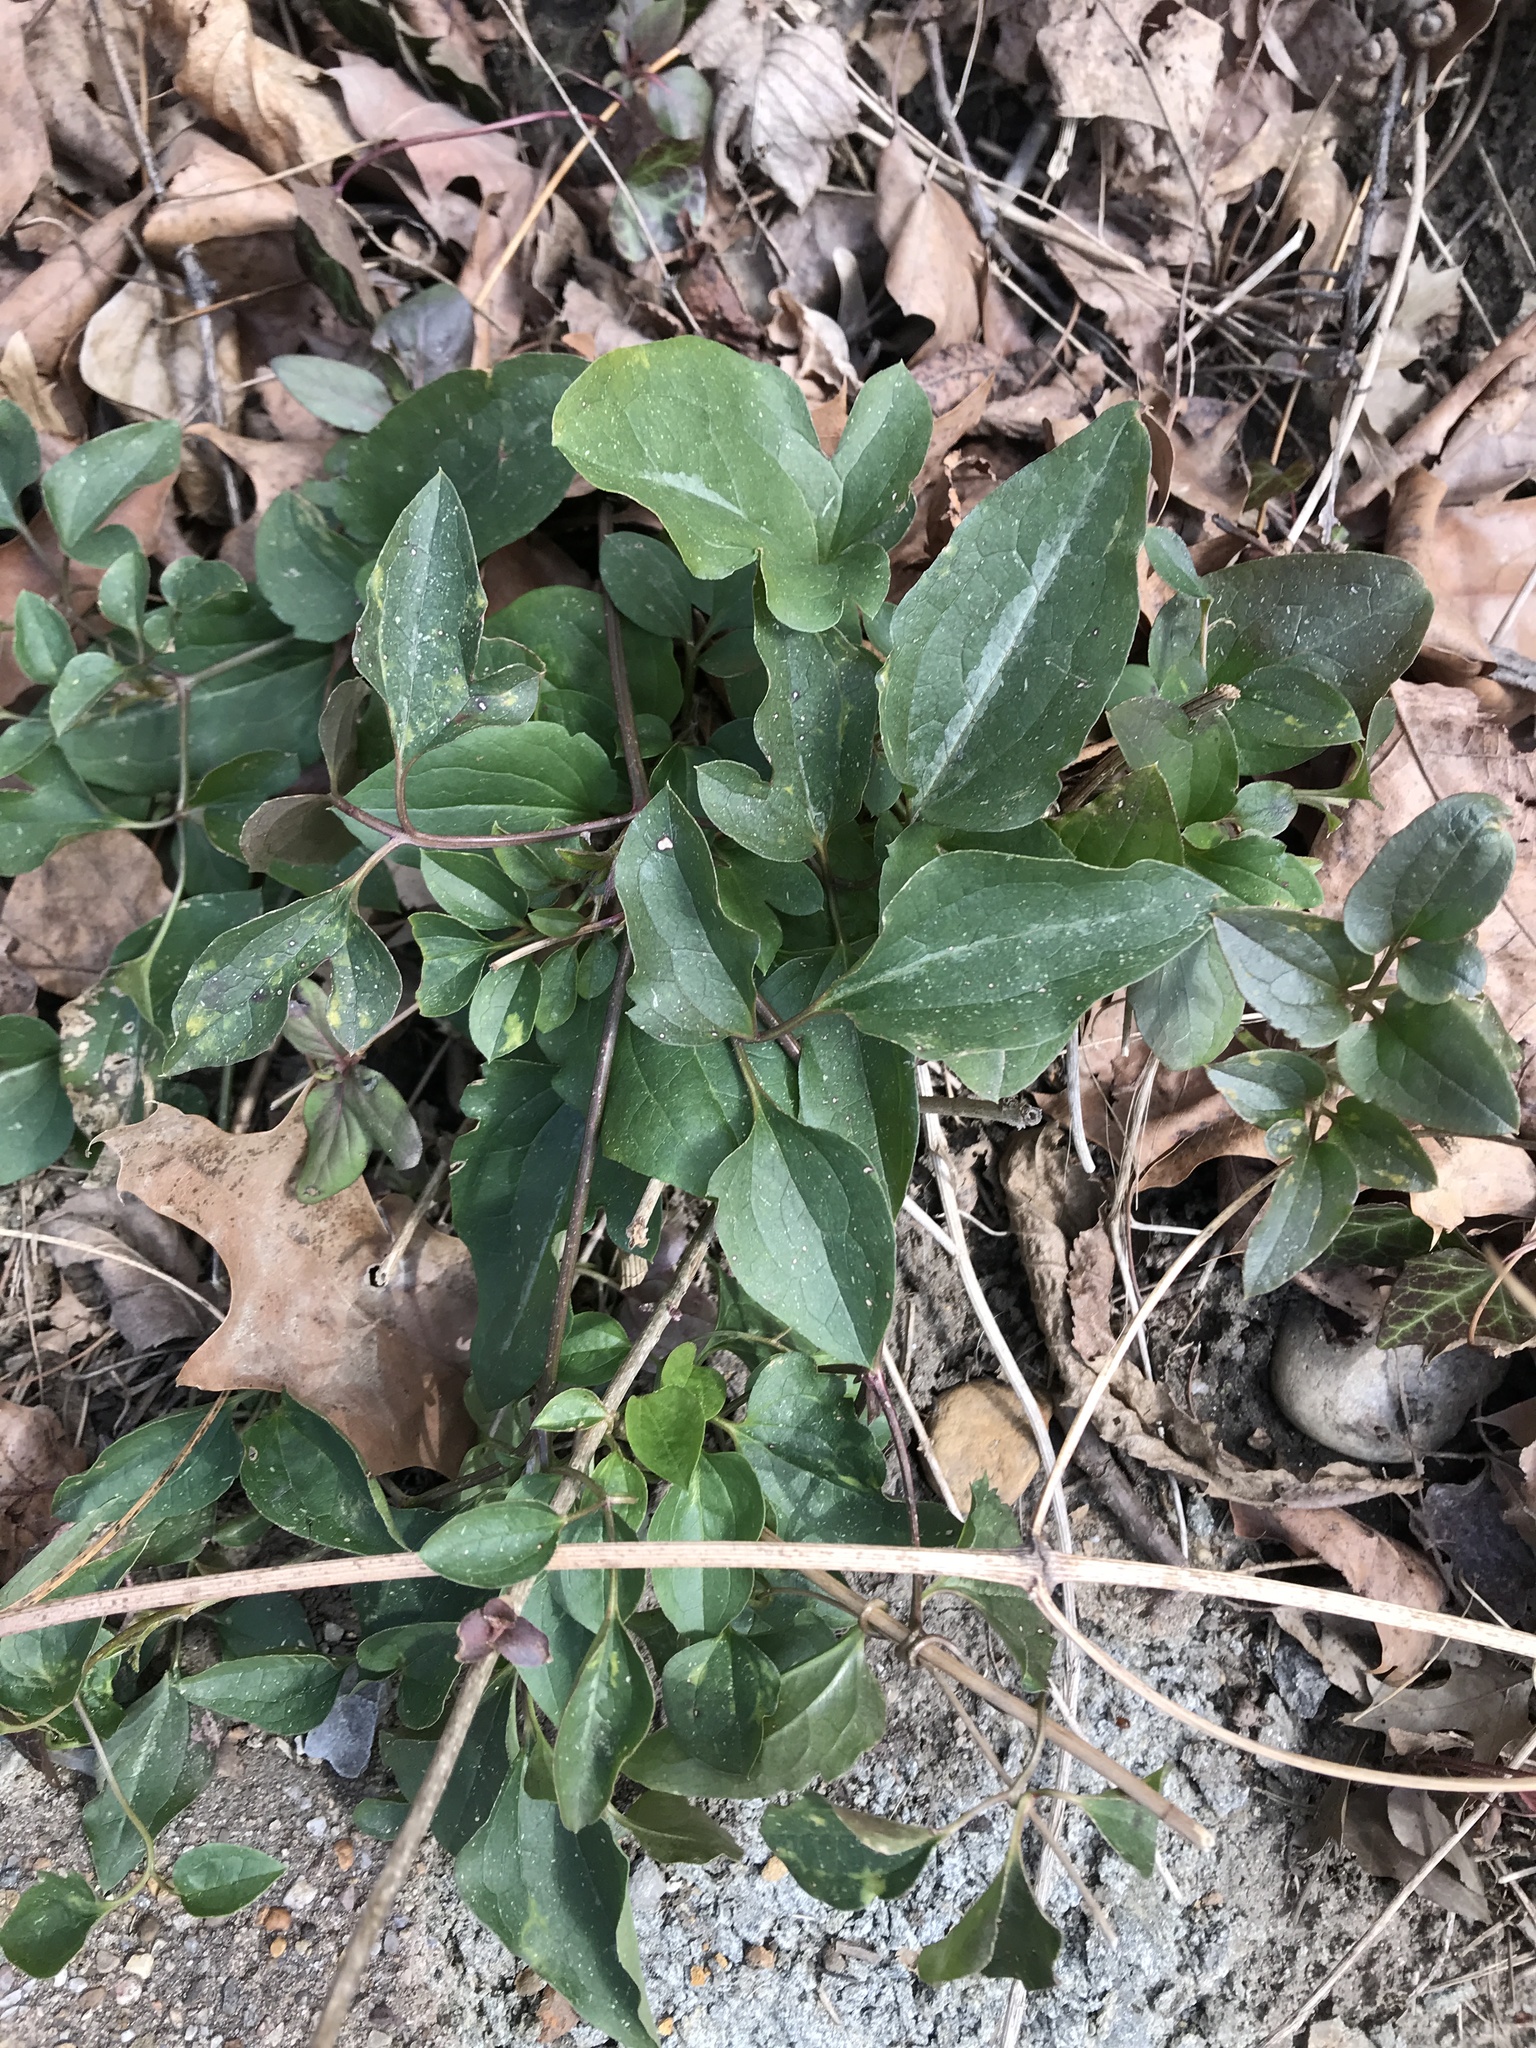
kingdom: Plantae
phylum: Tracheophyta
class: Magnoliopsida
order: Ranunculales
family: Ranunculaceae
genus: Clematis
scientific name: Clematis terniflora
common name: Sweet autumn clematis
